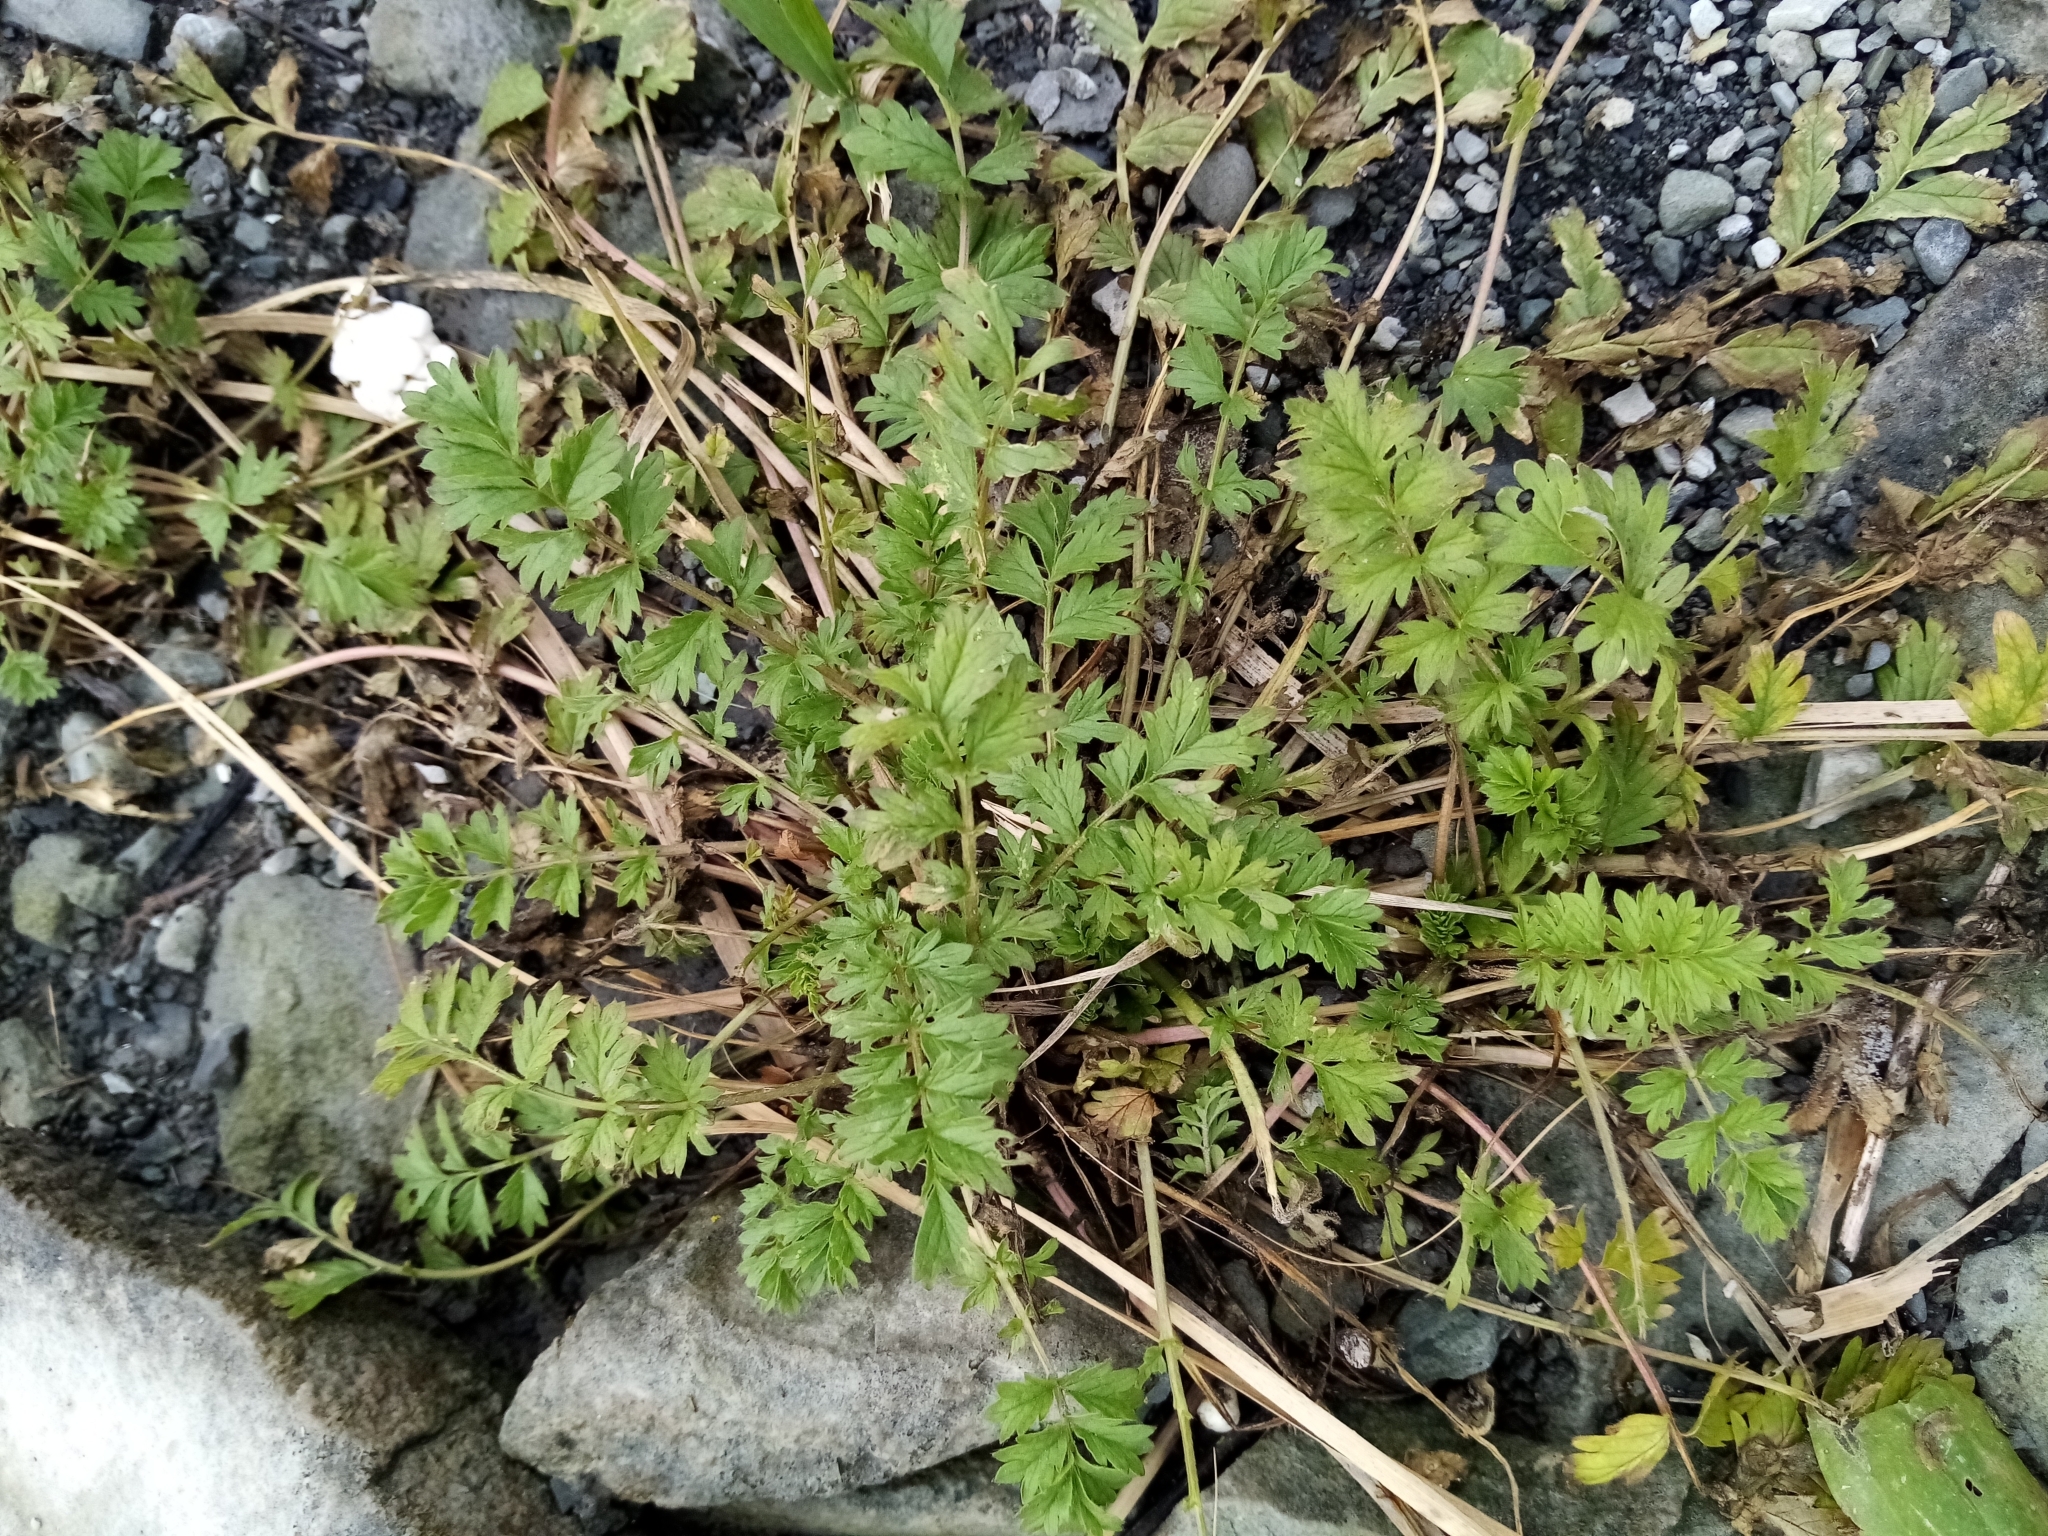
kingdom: Plantae
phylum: Tracheophyta
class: Magnoliopsida
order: Rosales
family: Rosaceae
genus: Potentilla
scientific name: Potentilla supina
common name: Prostrate cinquefoil
